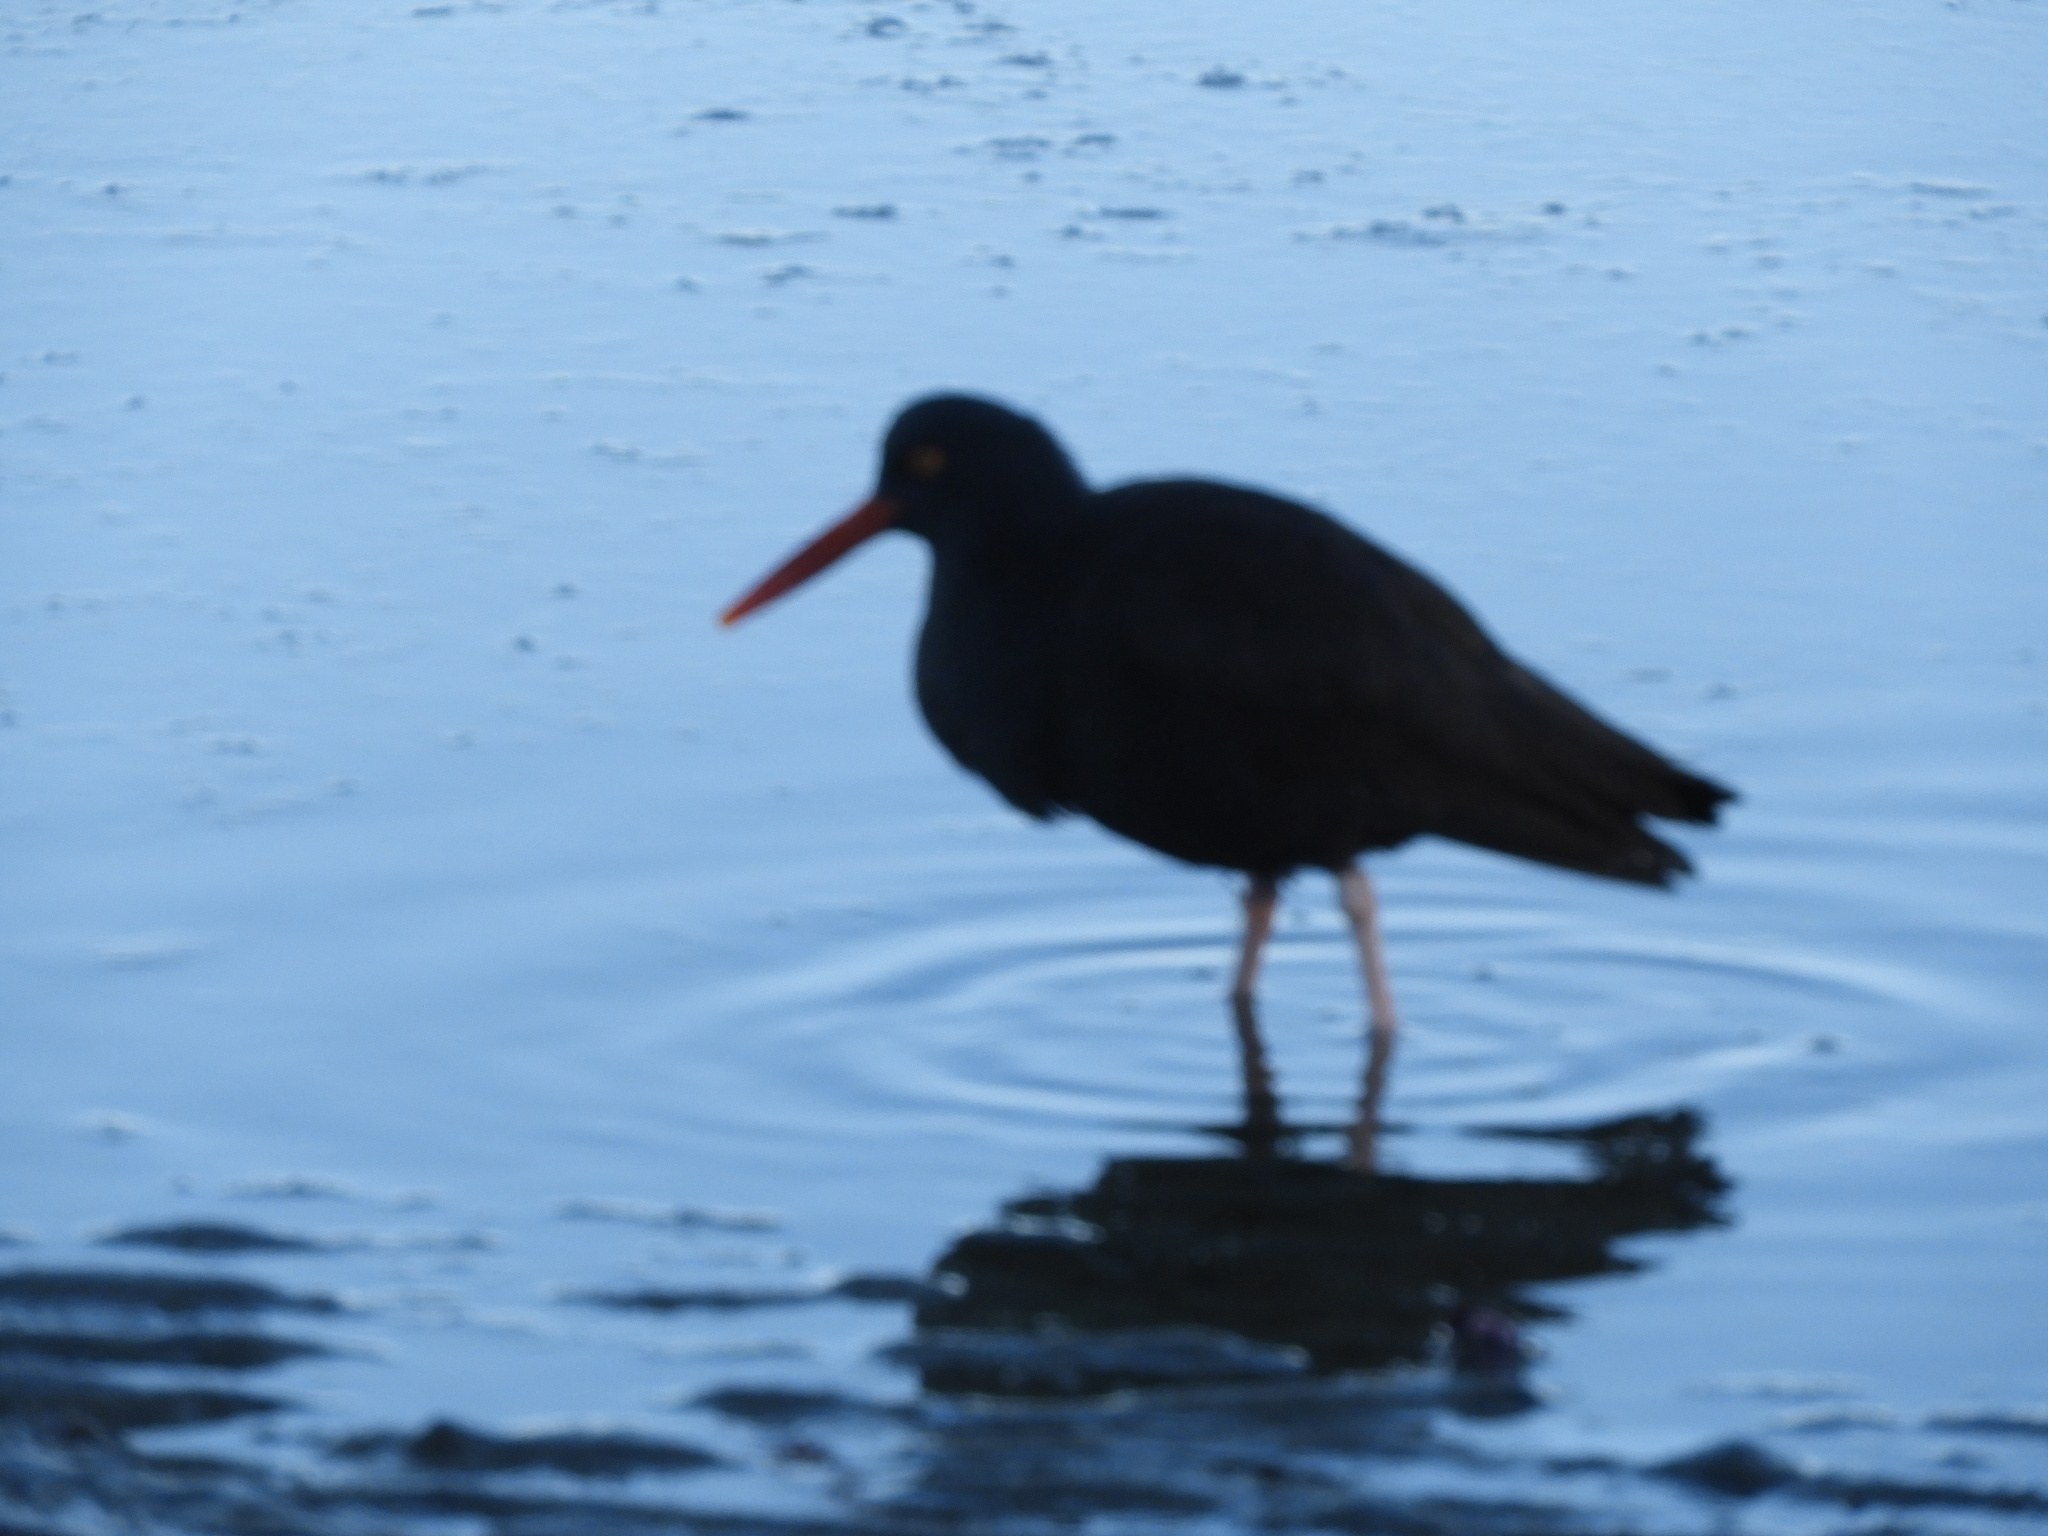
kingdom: Animalia
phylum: Chordata
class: Aves
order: Charadriiformes
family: Haematopodidae
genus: Haematopus
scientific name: Haematopus bachmani
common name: Black oystercatcher
